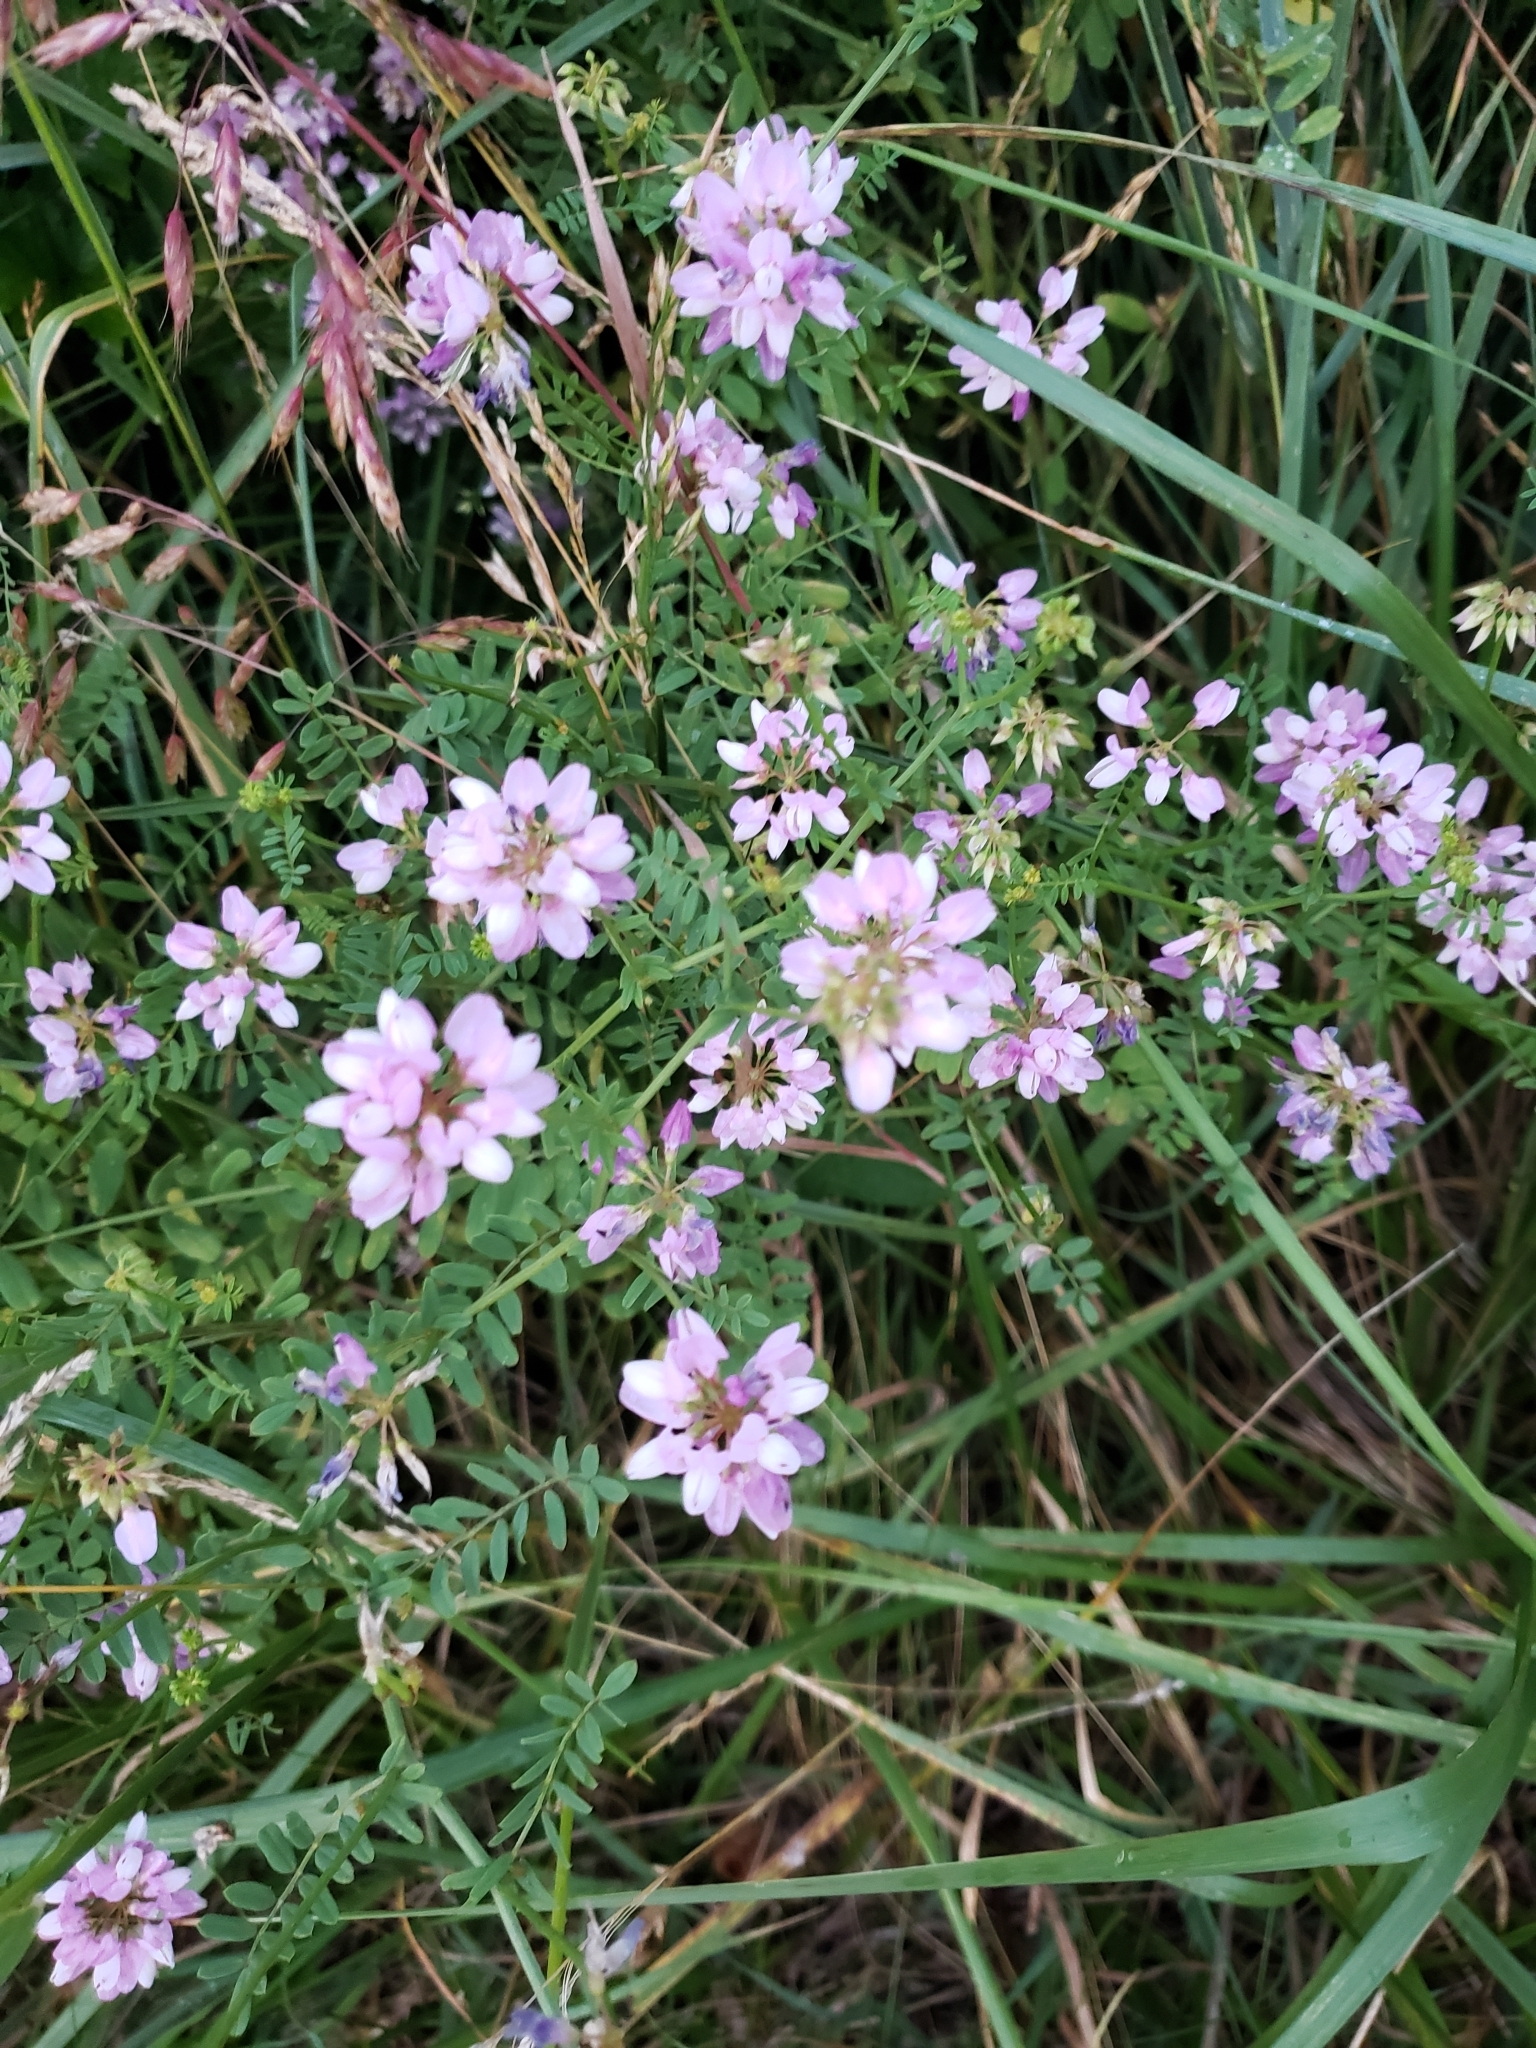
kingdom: Plantae
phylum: Tracheophyta
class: Magnoliopsida
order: Fabales
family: Fabaceae
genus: Coronilla
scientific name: Coronilla varia
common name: Crownvetch
